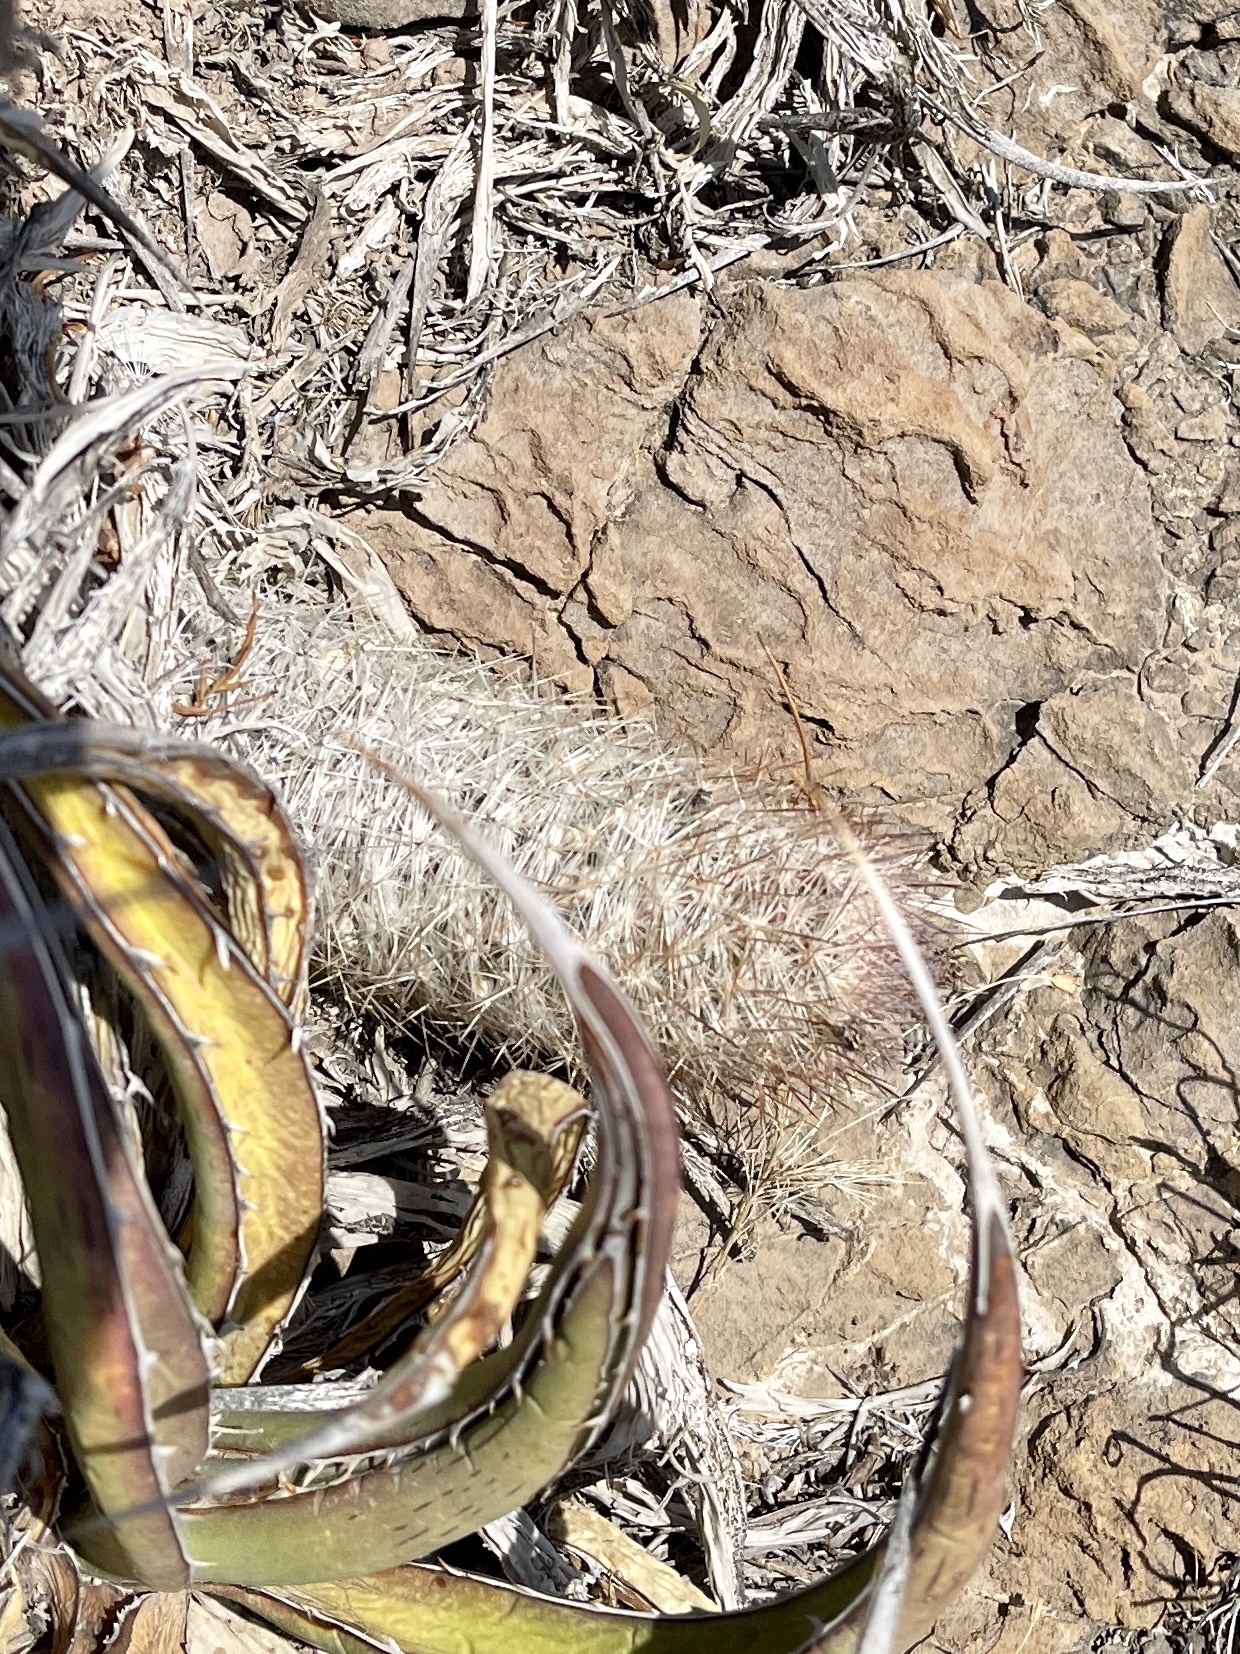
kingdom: Plantae
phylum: Tracheophyta
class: Magnoliopsida
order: Caryophyllales
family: Cactaceae
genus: Pelecyphora
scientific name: Pelecyphora tuberculosa
